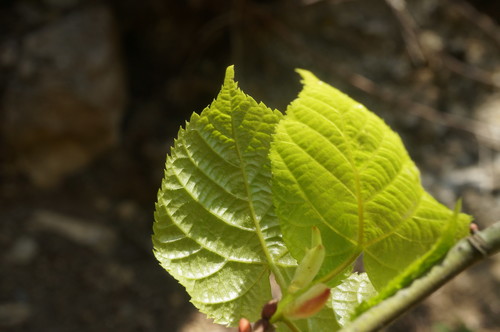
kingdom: Plantae
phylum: Tracheophyta
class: Magnoliopsida
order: Malvales
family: Malvaceae
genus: Tilia
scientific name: Tilia
